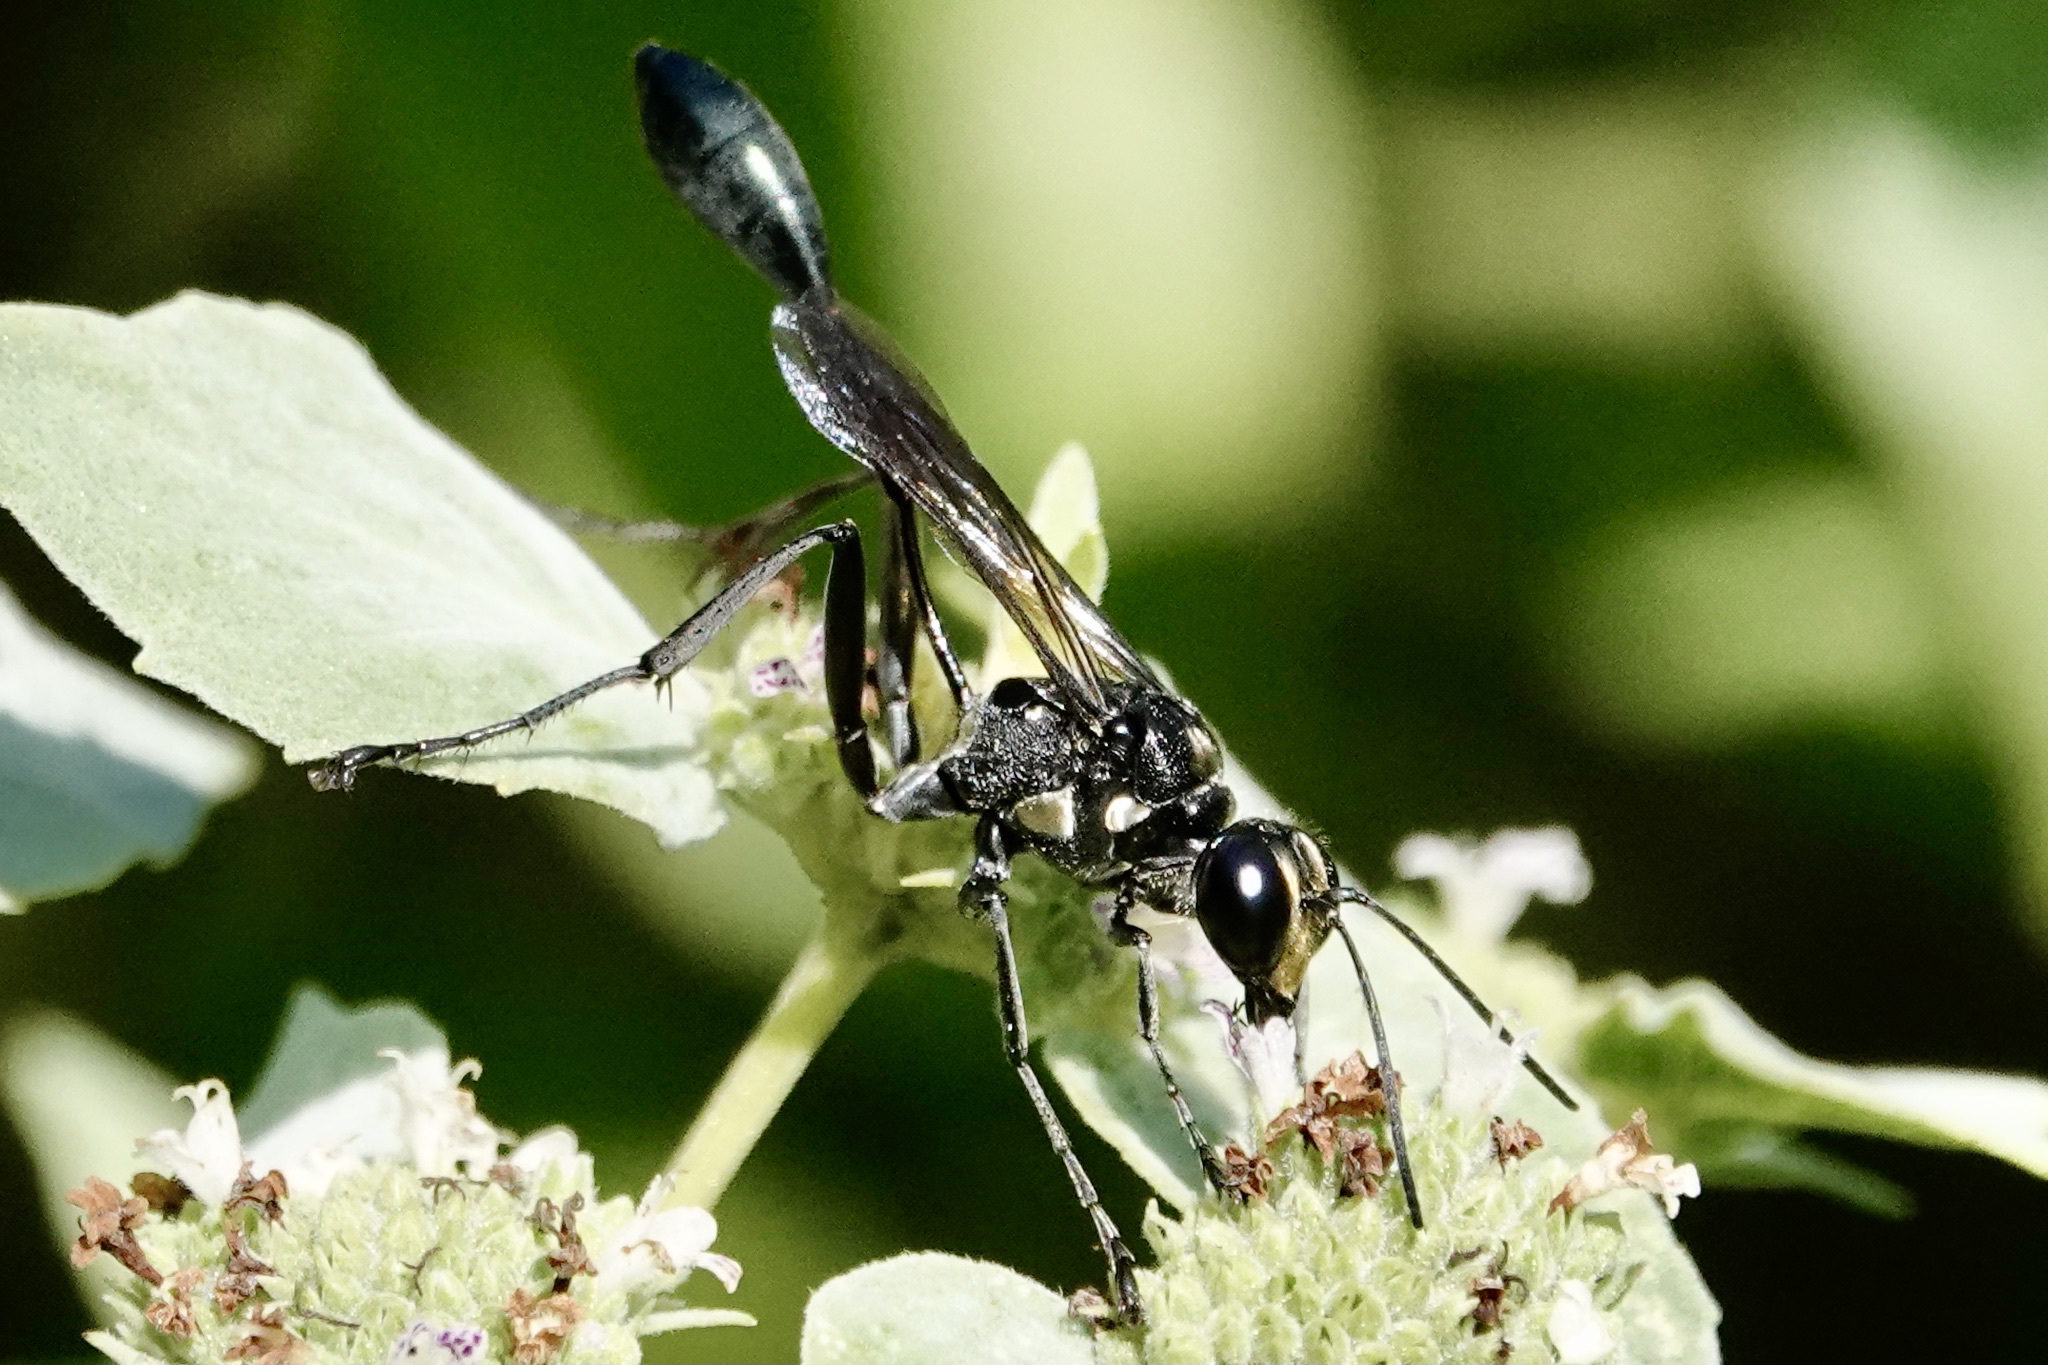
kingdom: Animalia
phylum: Arthropoda
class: Insecta
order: Hymenoptera
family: Sphecidae
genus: Eremnophila
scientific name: Eremnophila aureonotata
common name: Gold-marked thread-waisted wasp
